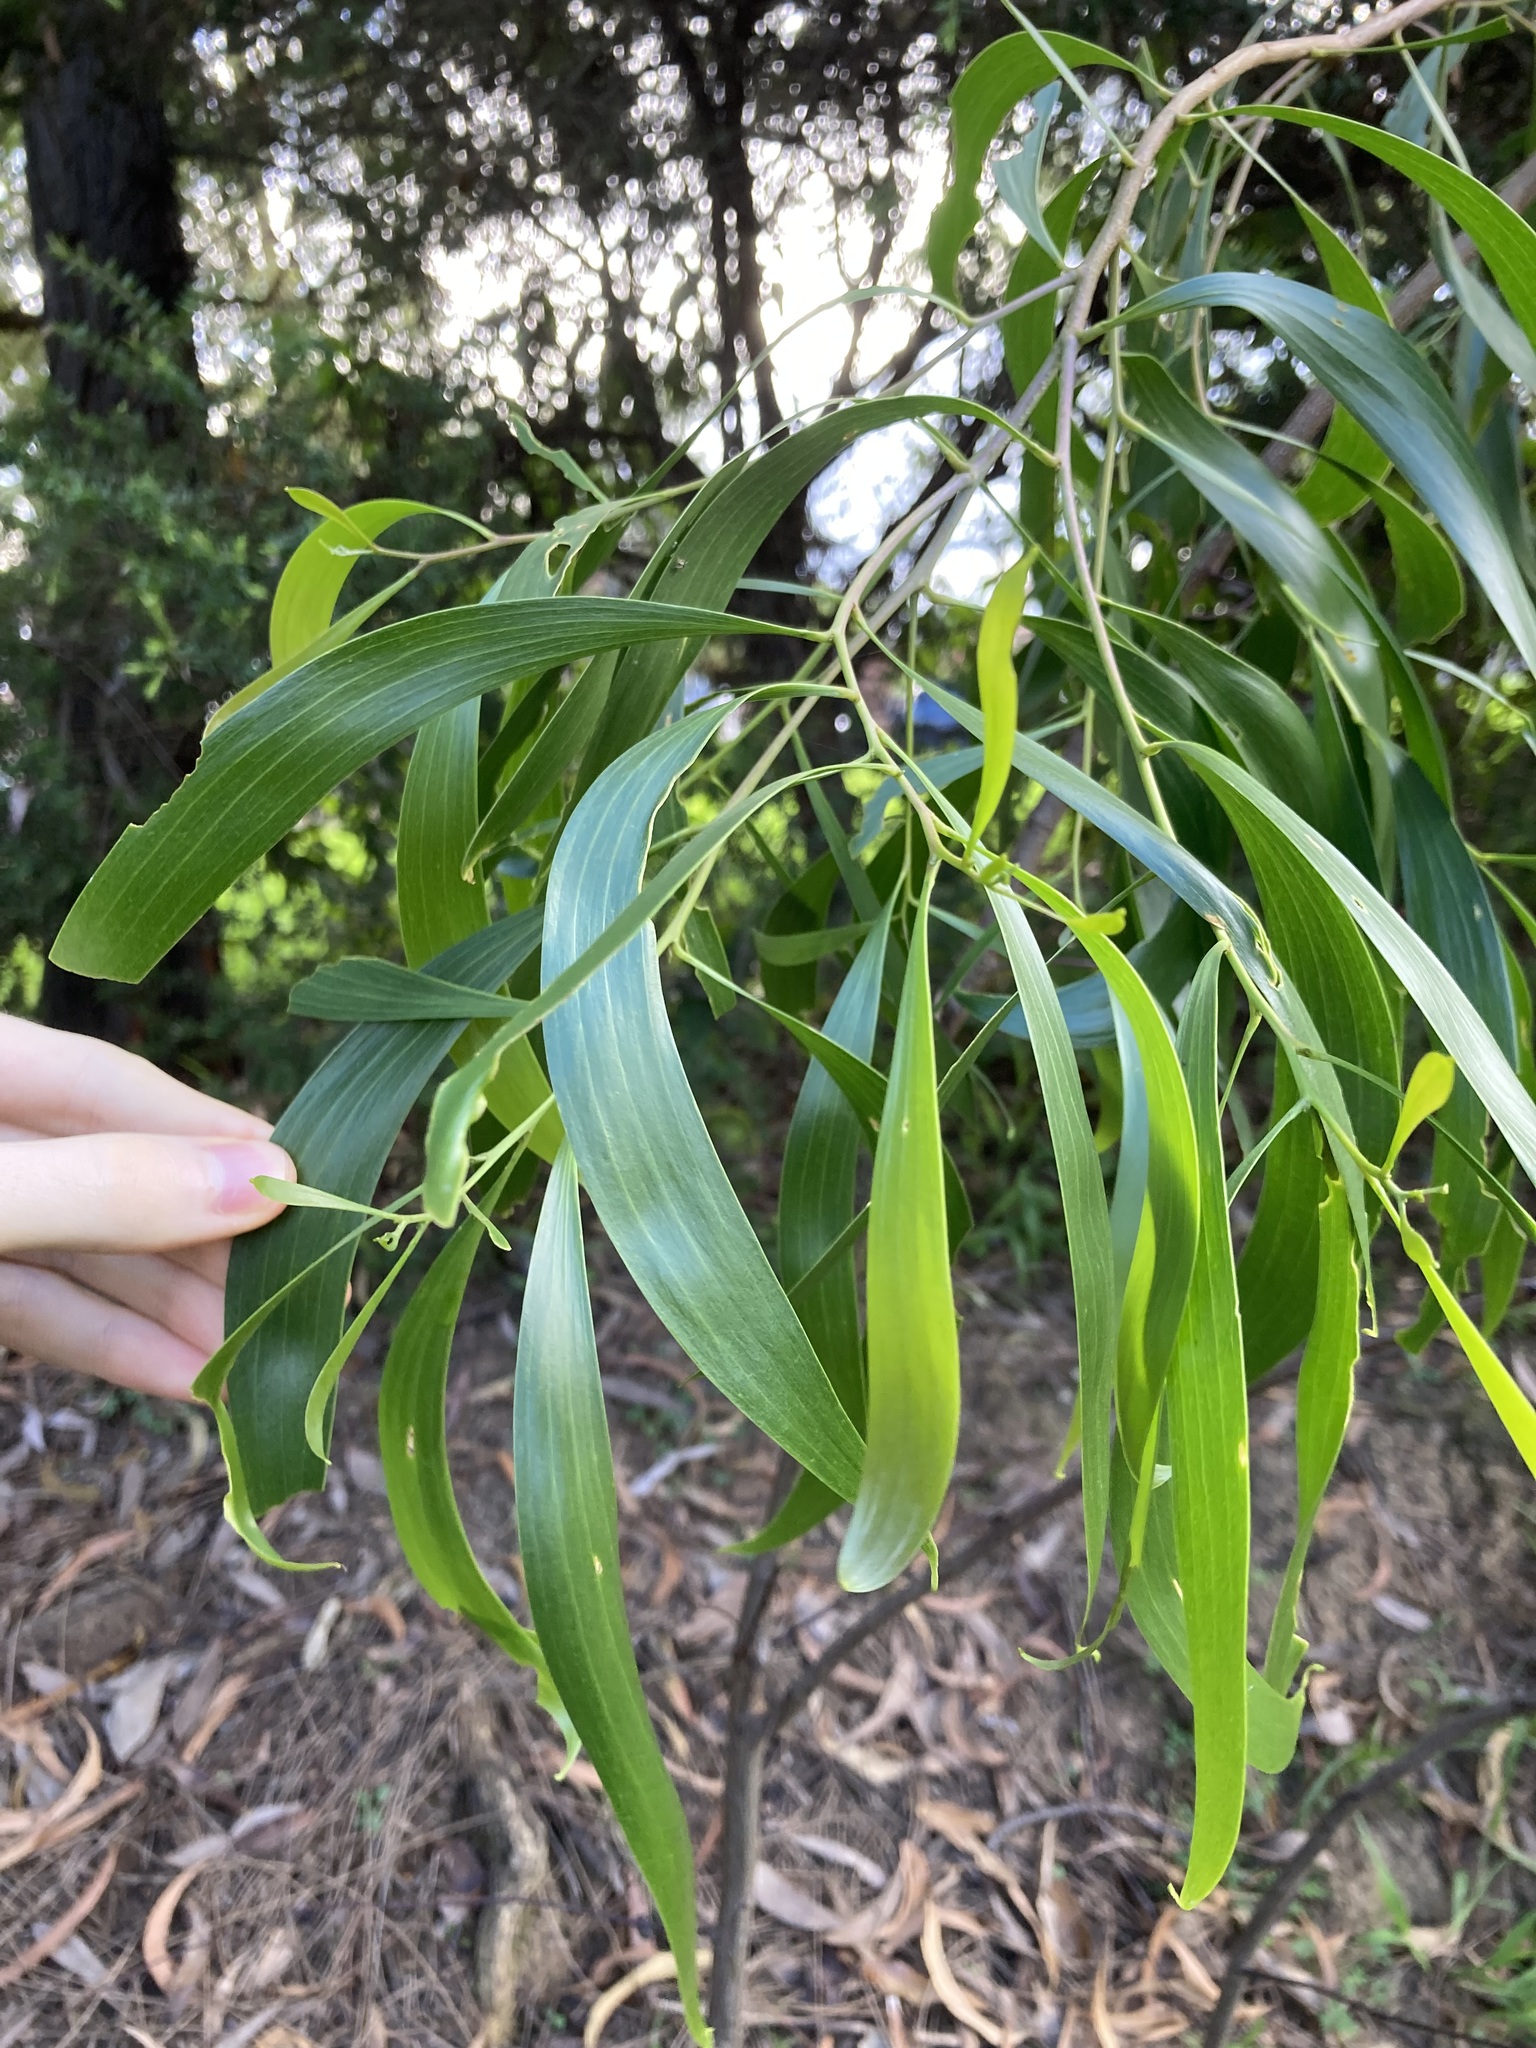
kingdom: Plantae
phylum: Tracheophyta
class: Magnoliopsida
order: Fabales
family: Fabaceae
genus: Acacia
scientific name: Acacia implexa
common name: Black wattle
